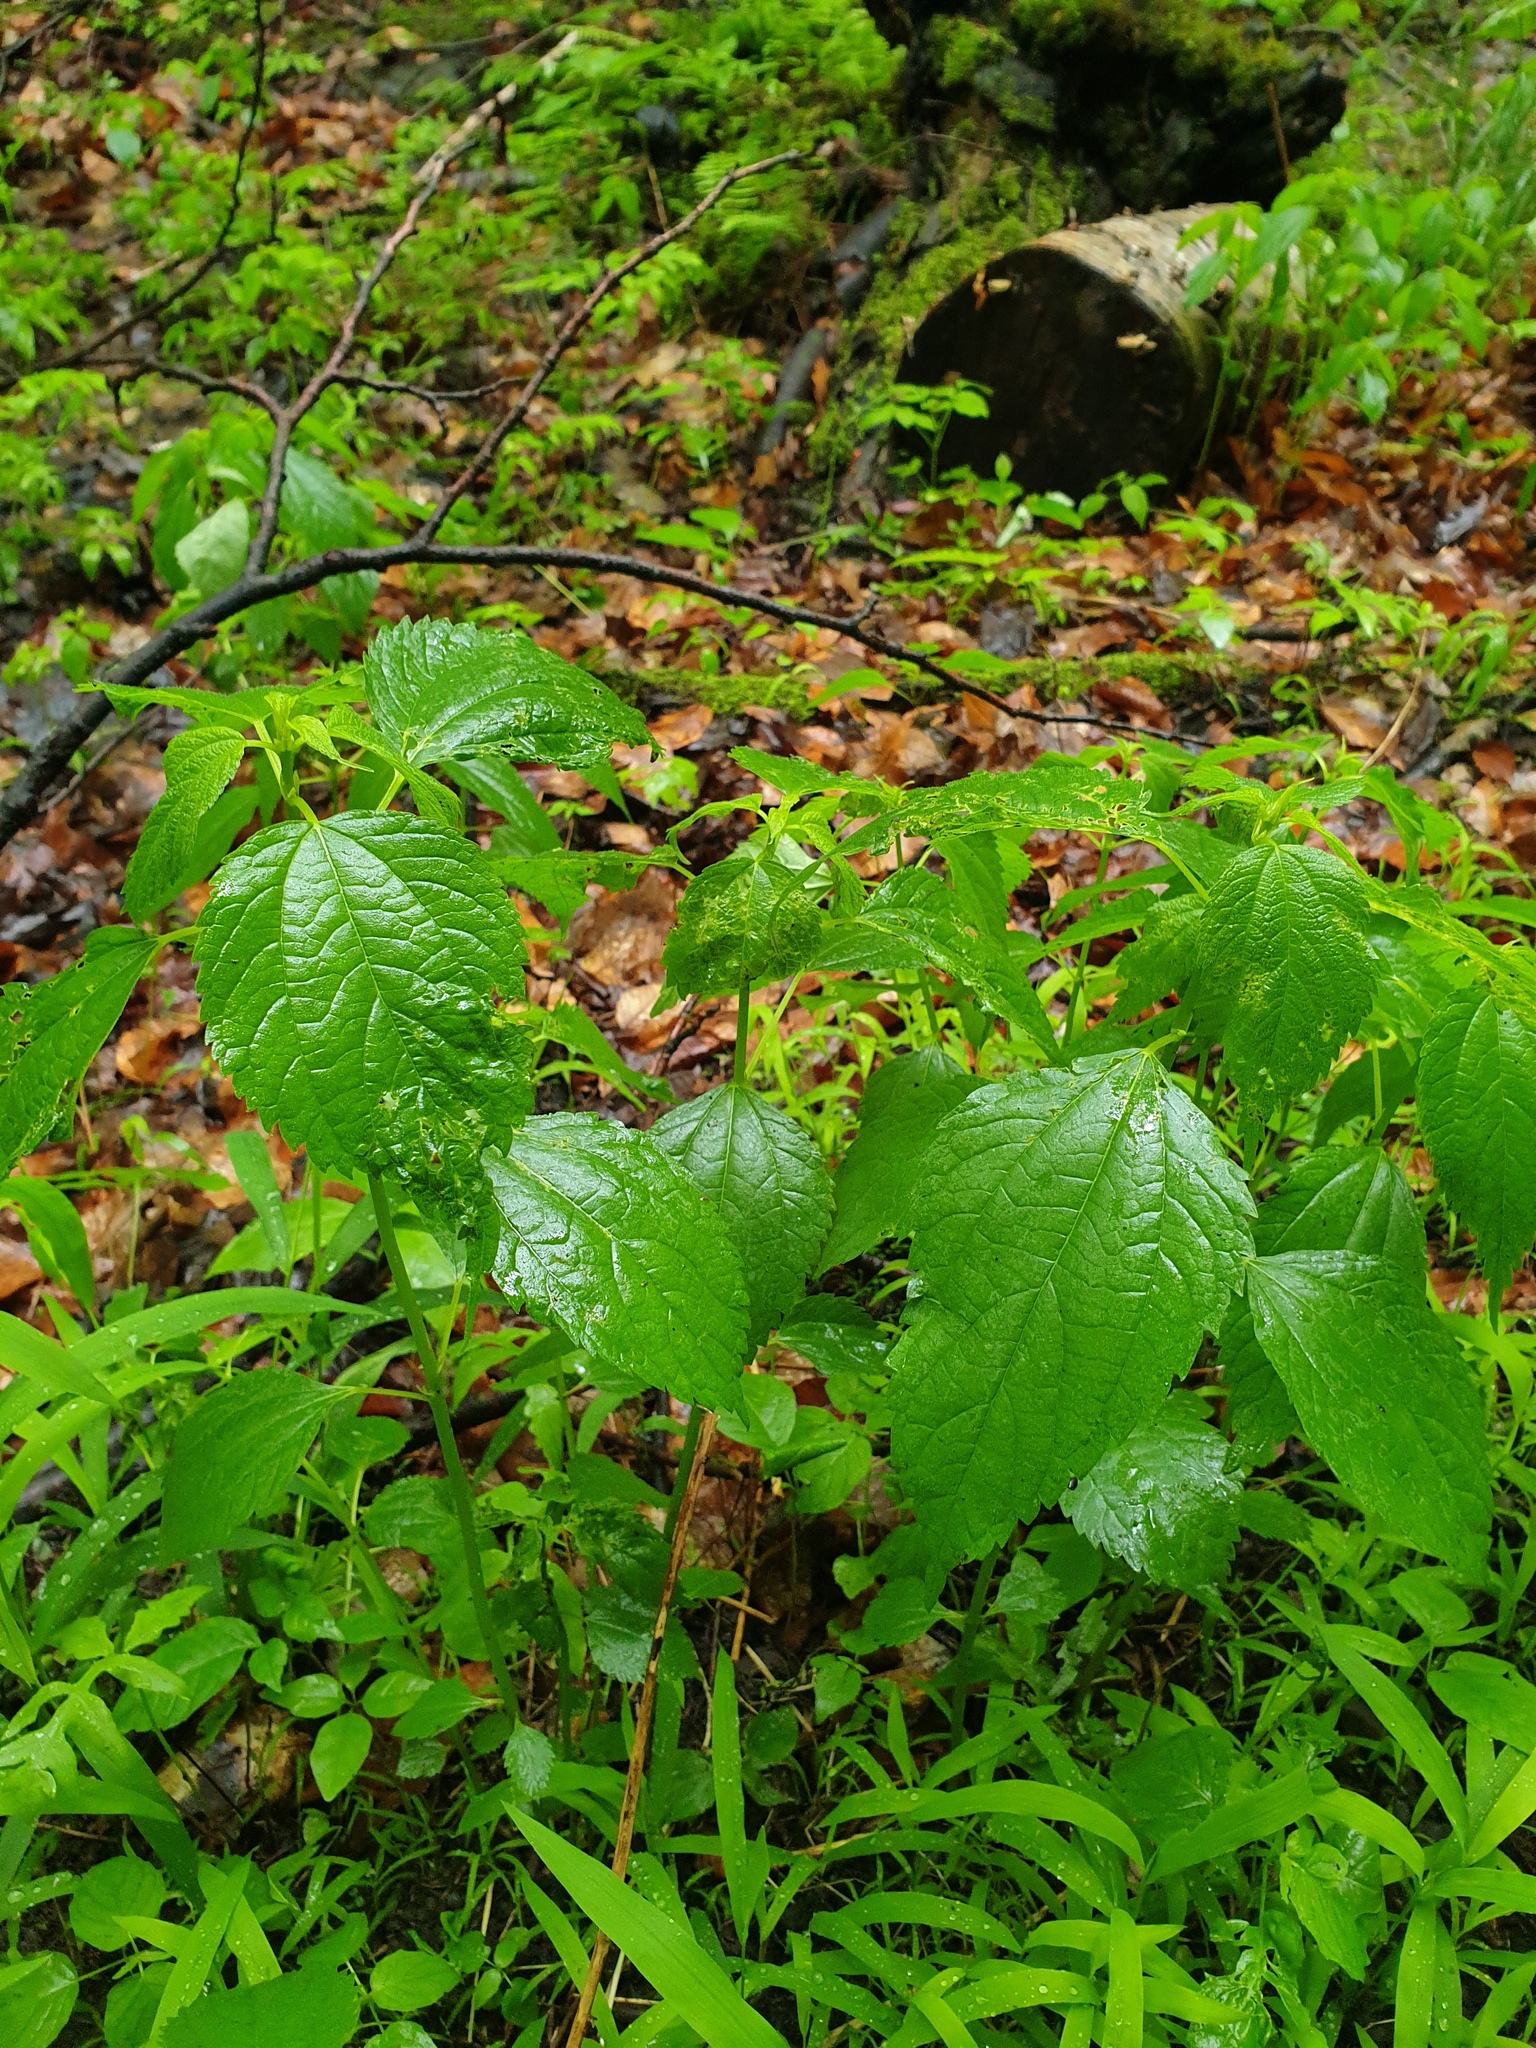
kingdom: Plantae
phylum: Tracheophyta
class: Magnoliopsida
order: Rosales
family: Urticaceae
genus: Boehmeria
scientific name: Boehmeria cylindrica
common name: Bog-hemp
